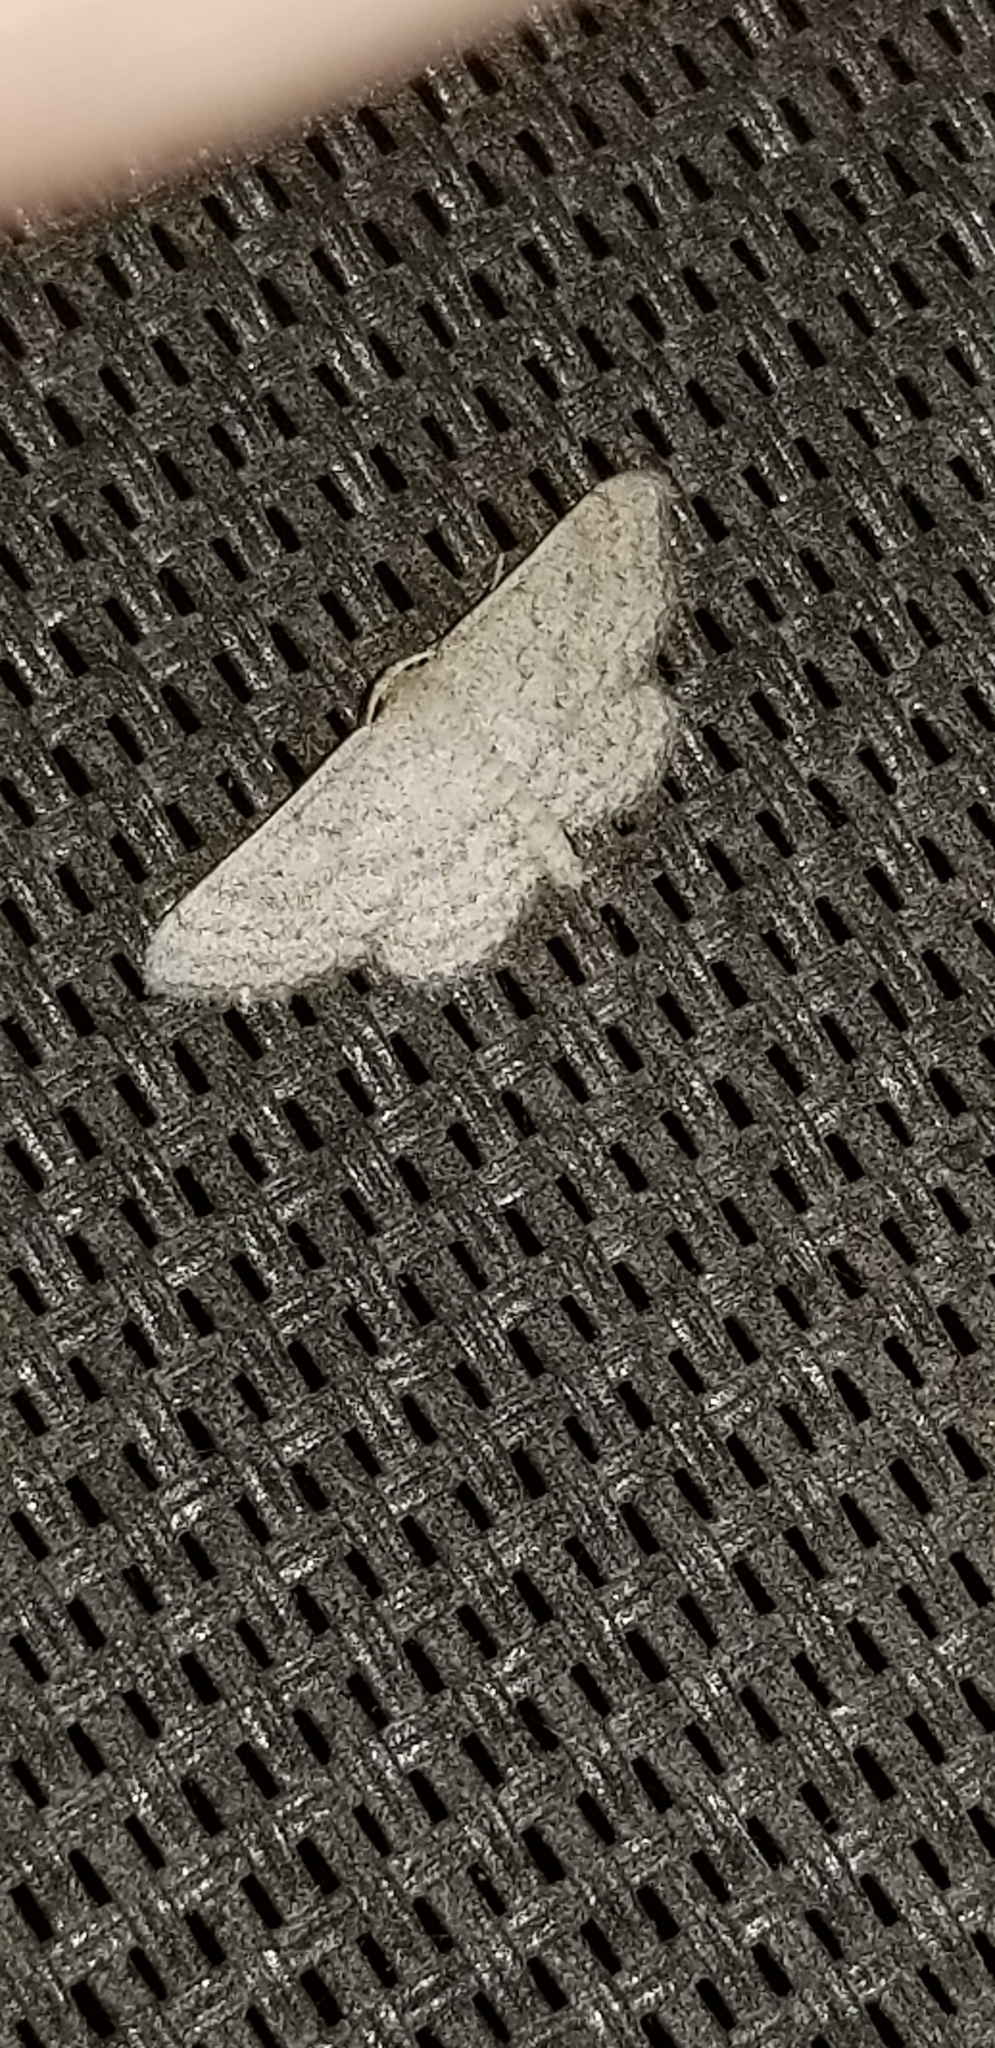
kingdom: Animalia
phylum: Arthropoda
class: Insecta
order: Lepidoptera
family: Geometridae
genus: Lobocleta
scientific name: Lobocleta ossularia
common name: Drab brown wave
